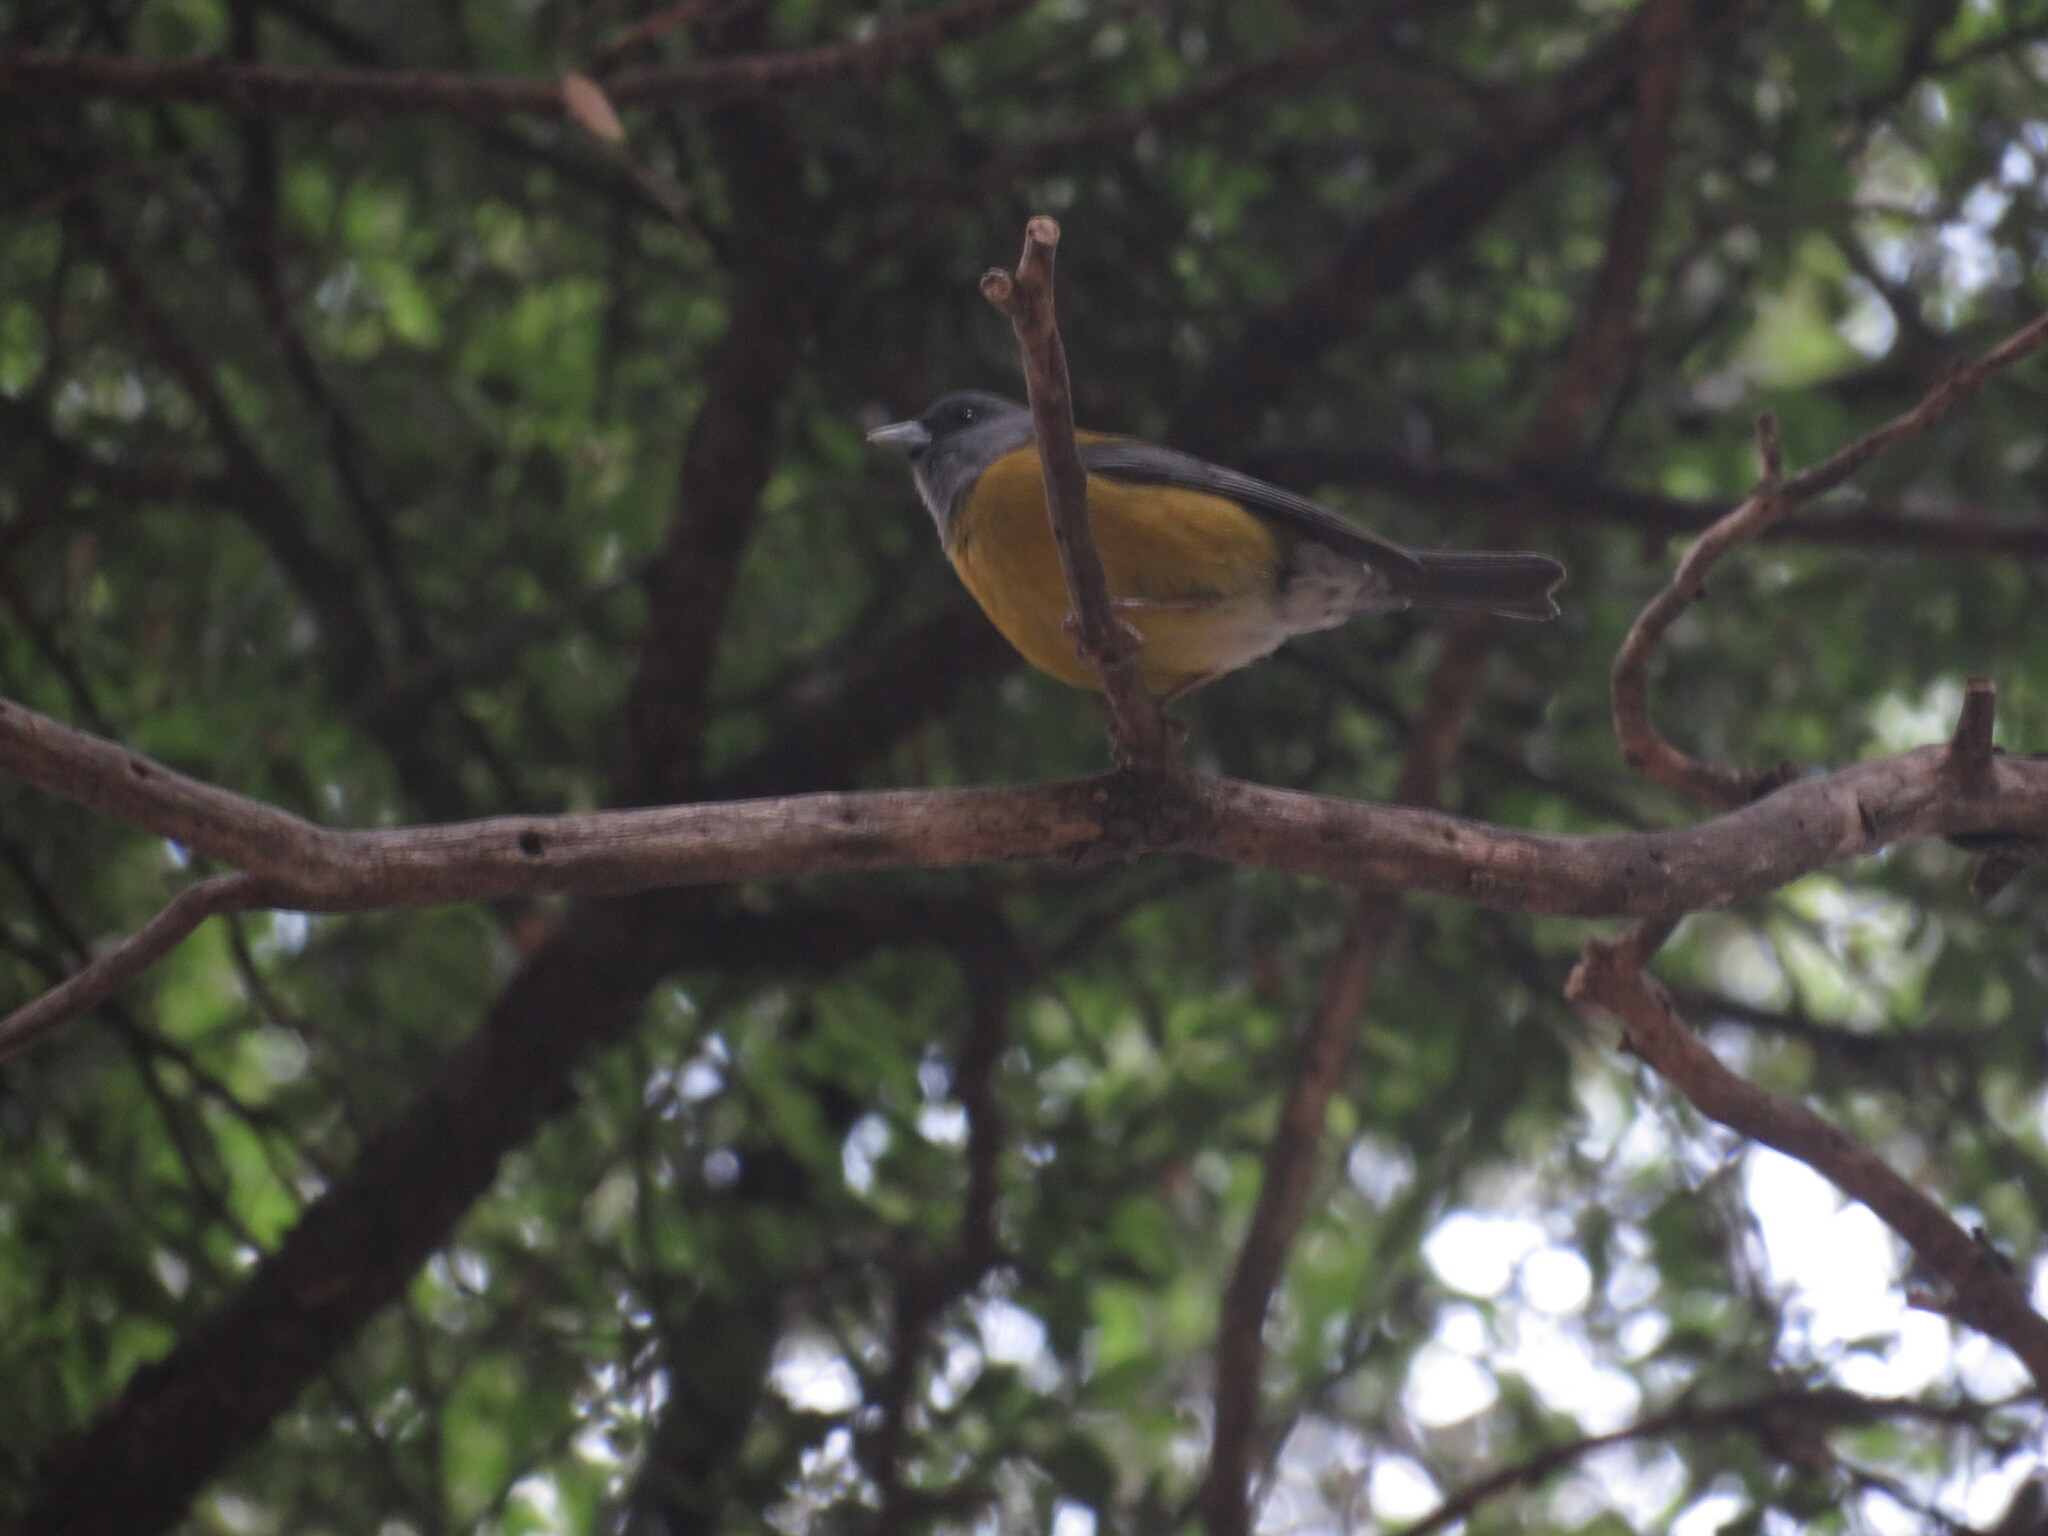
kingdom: Animalia
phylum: Chordata
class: Aves
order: Passeriformes
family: Thraupidae
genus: Phrygilus
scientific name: Phrygilus patagonicus
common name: Patagonian sierra finch
